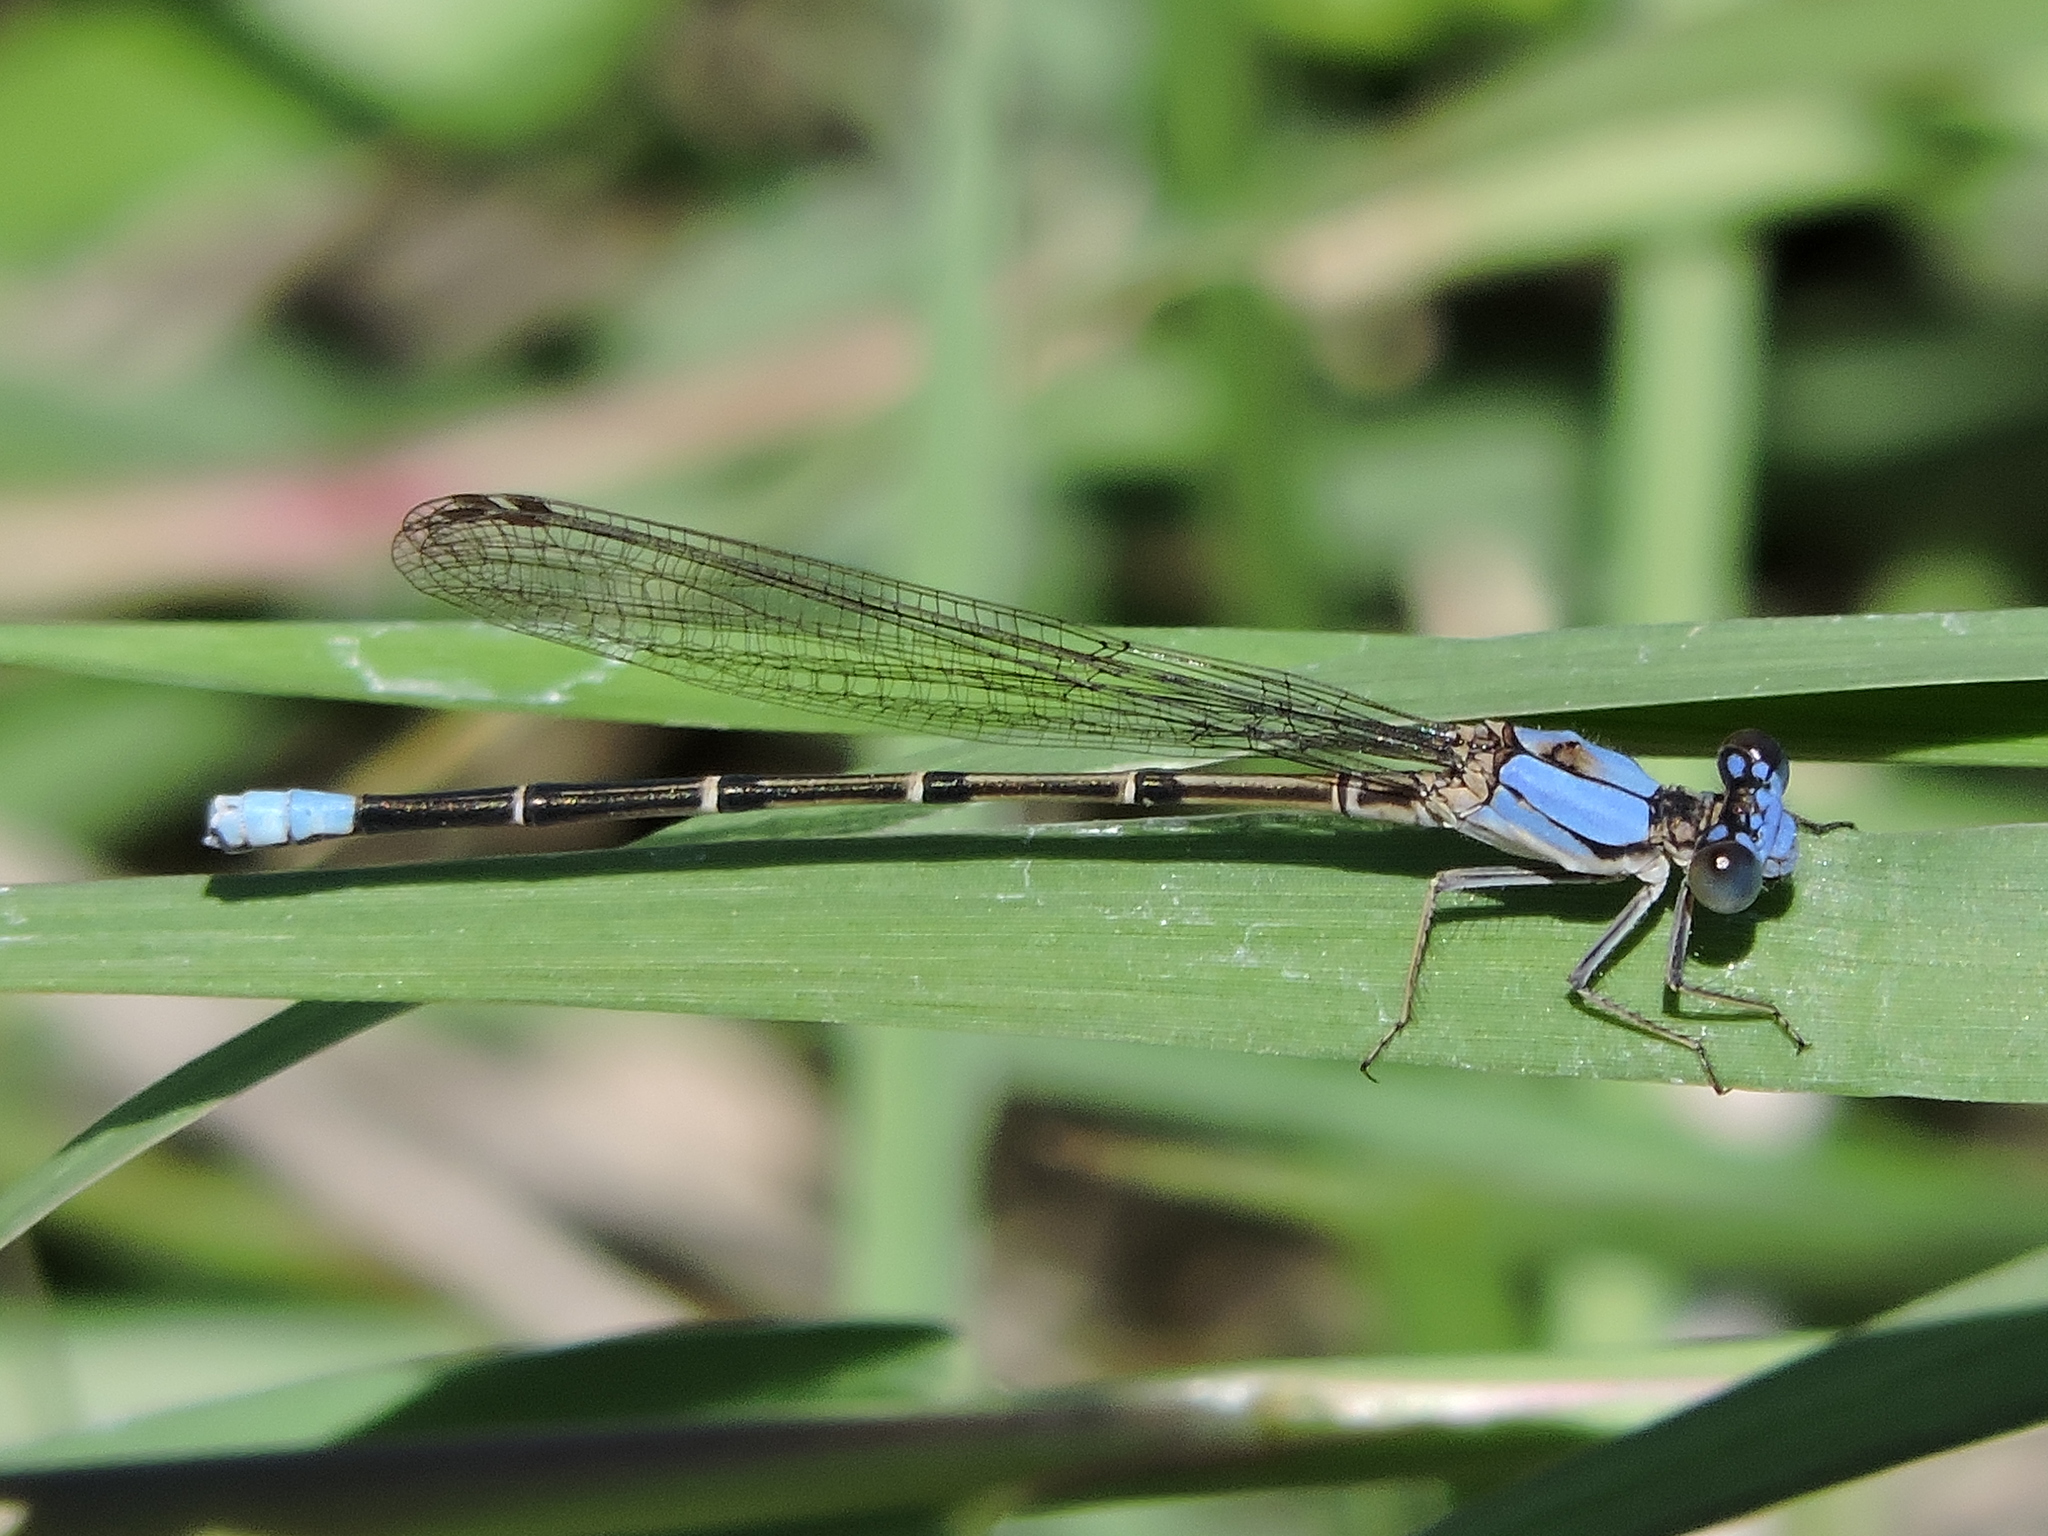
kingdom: Animalia
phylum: Arthropoda
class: Insecta
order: Odonata
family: Coenagrionidae
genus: Argia
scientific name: Argia apicalis
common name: Blue-fronted dancer
